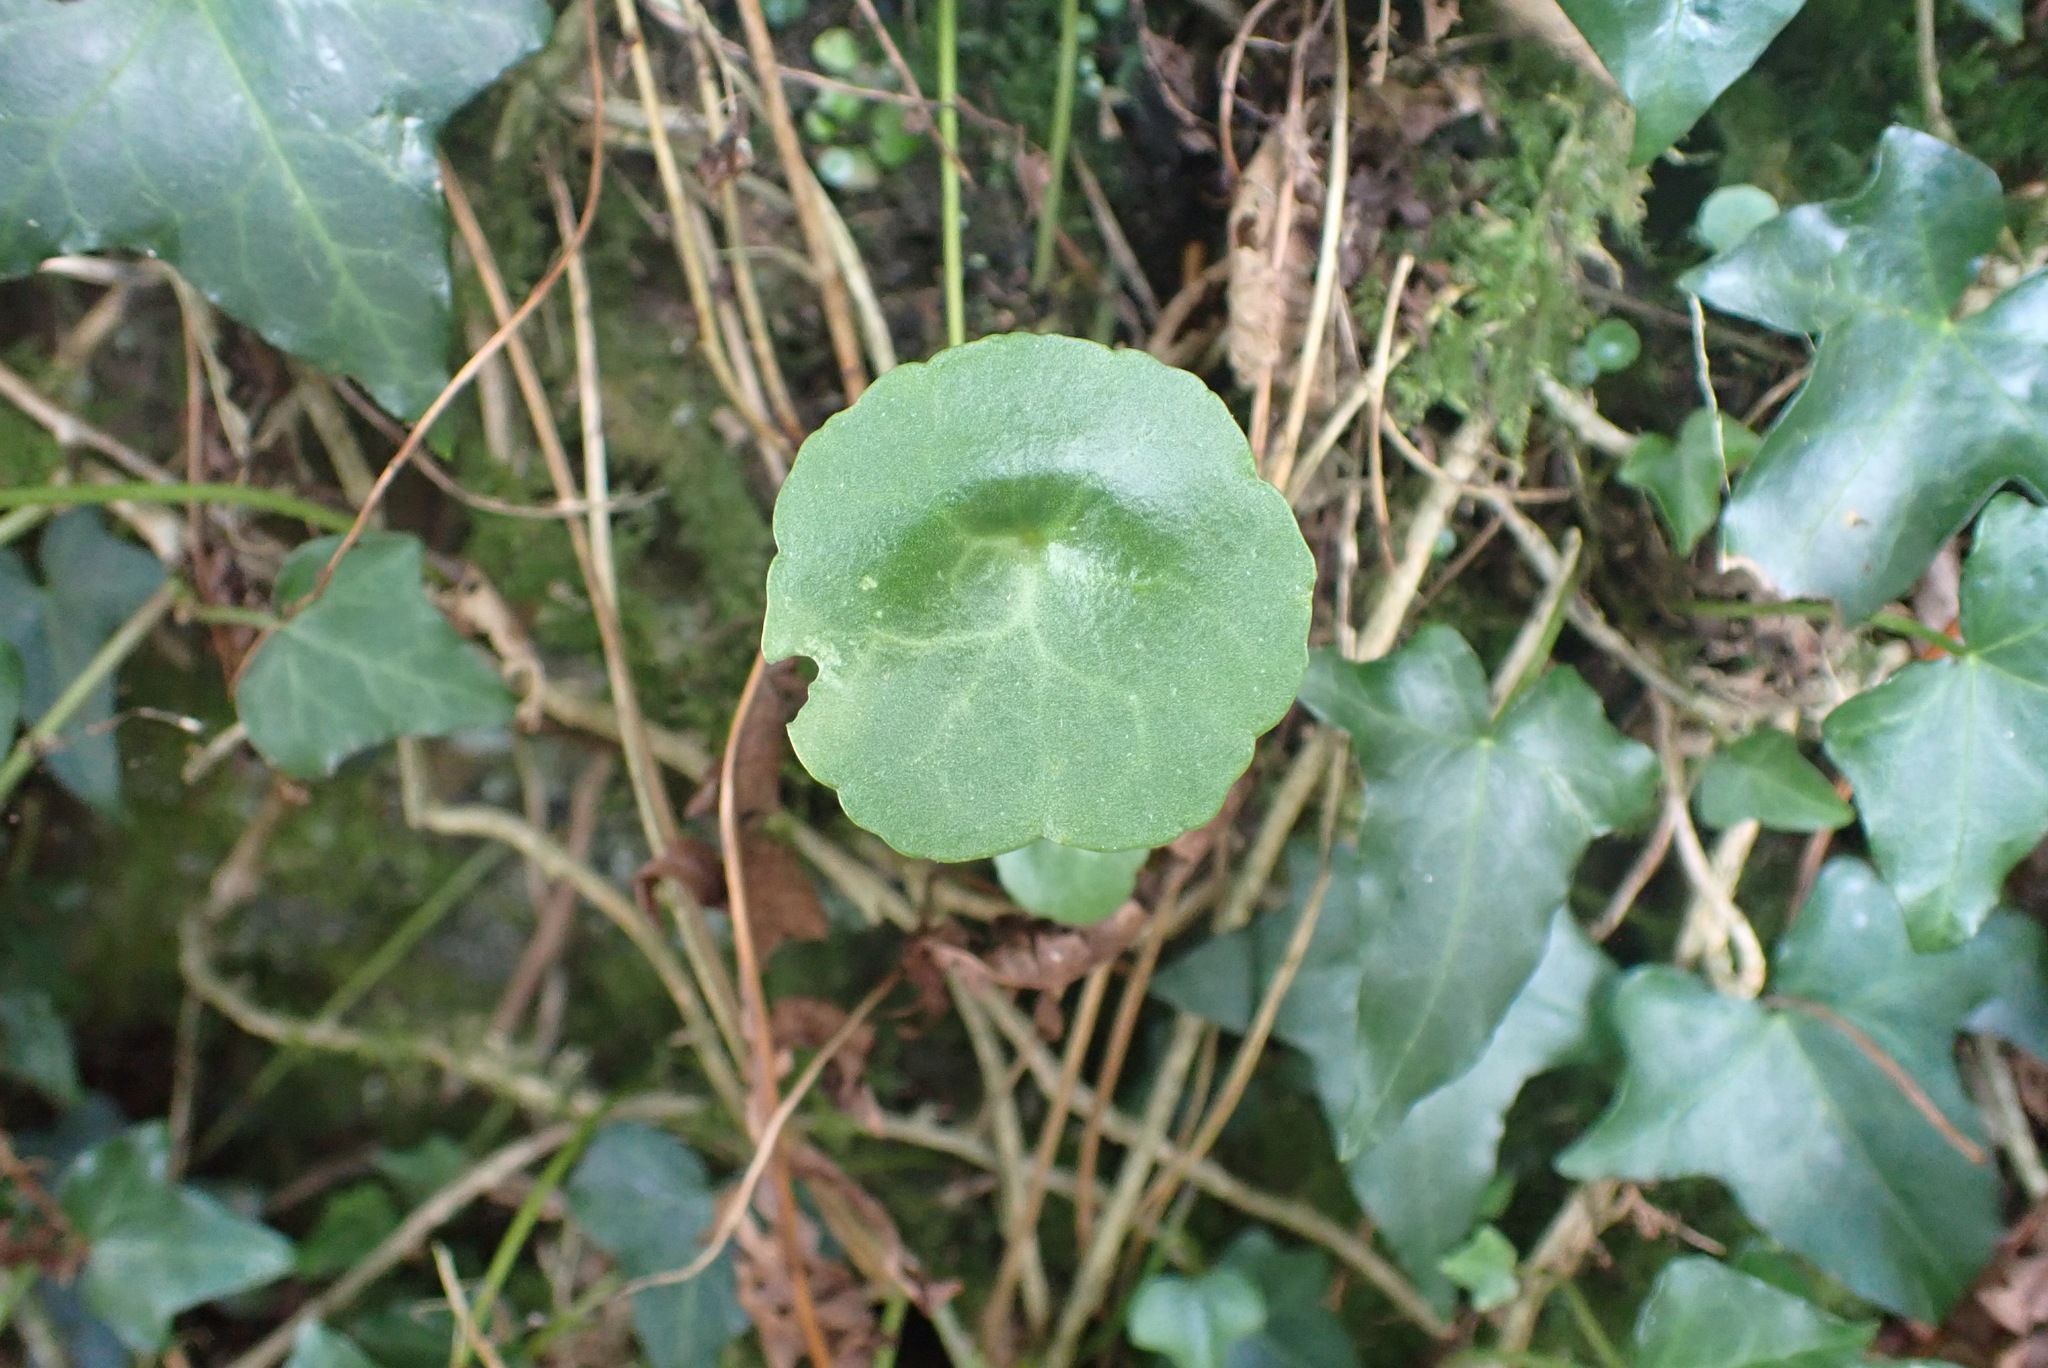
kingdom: Plantae
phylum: Tracheophyta
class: Magnoliopsida
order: Saxifragales
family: Crassulaceae
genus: Umbilicus
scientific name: Umbilicus rupestris
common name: Navelwort
